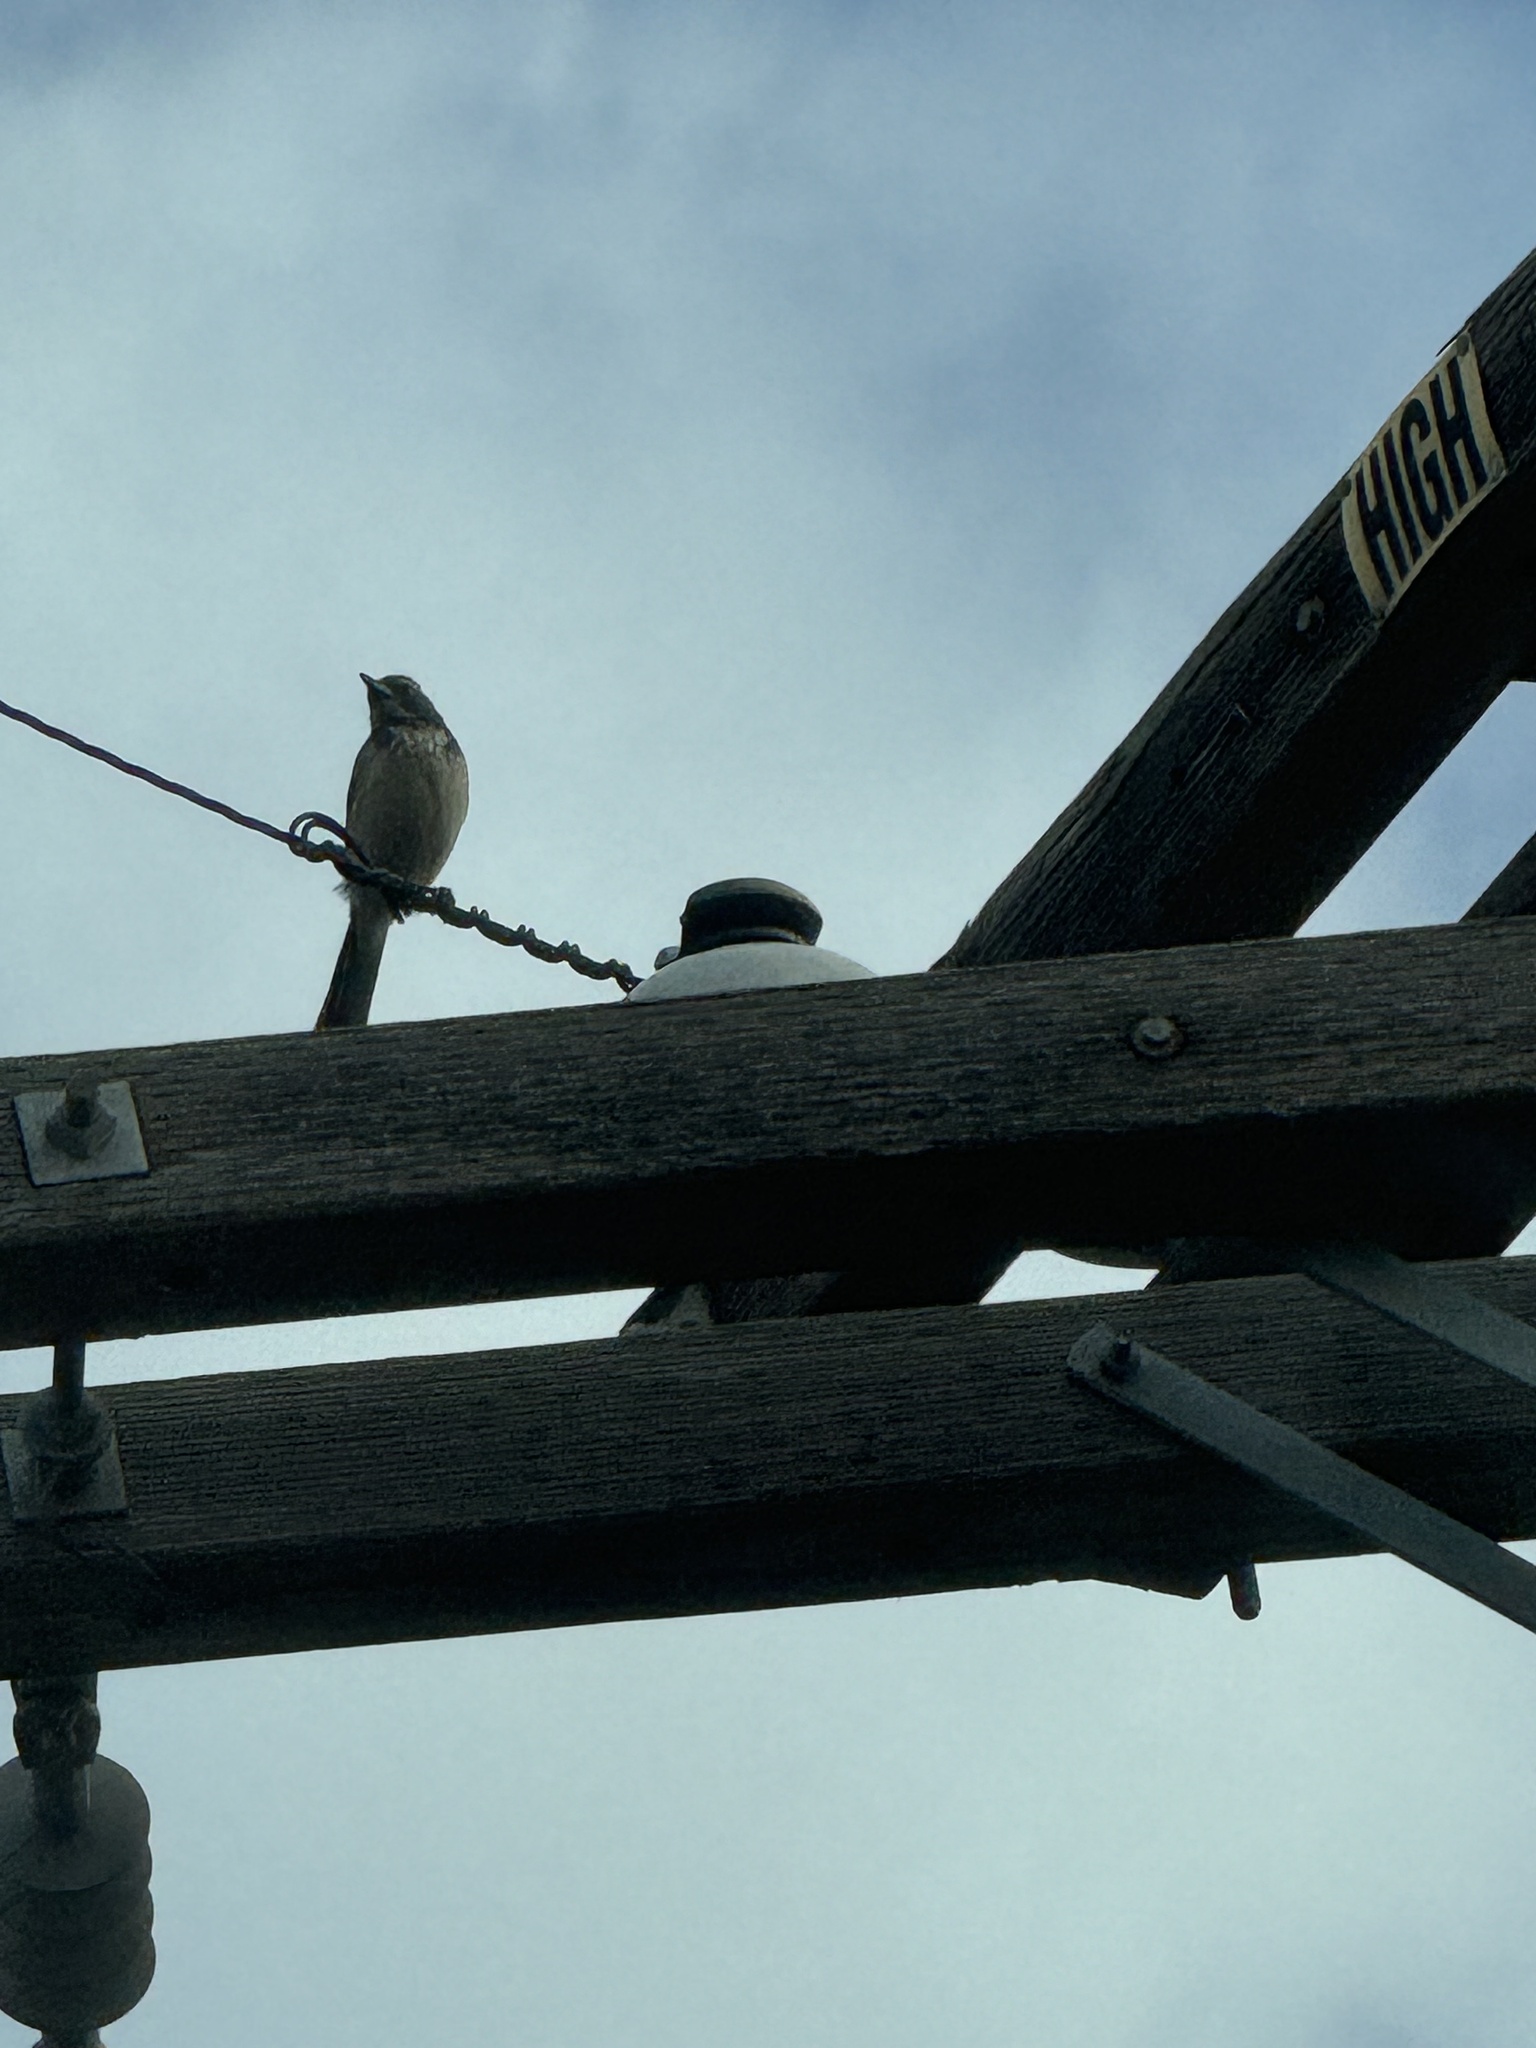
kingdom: Animalia
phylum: Chordata
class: Aves
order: Passeriformes
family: Corvidae
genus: Aphelocoma
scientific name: Aphelocoma californica
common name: California scrub-jay
